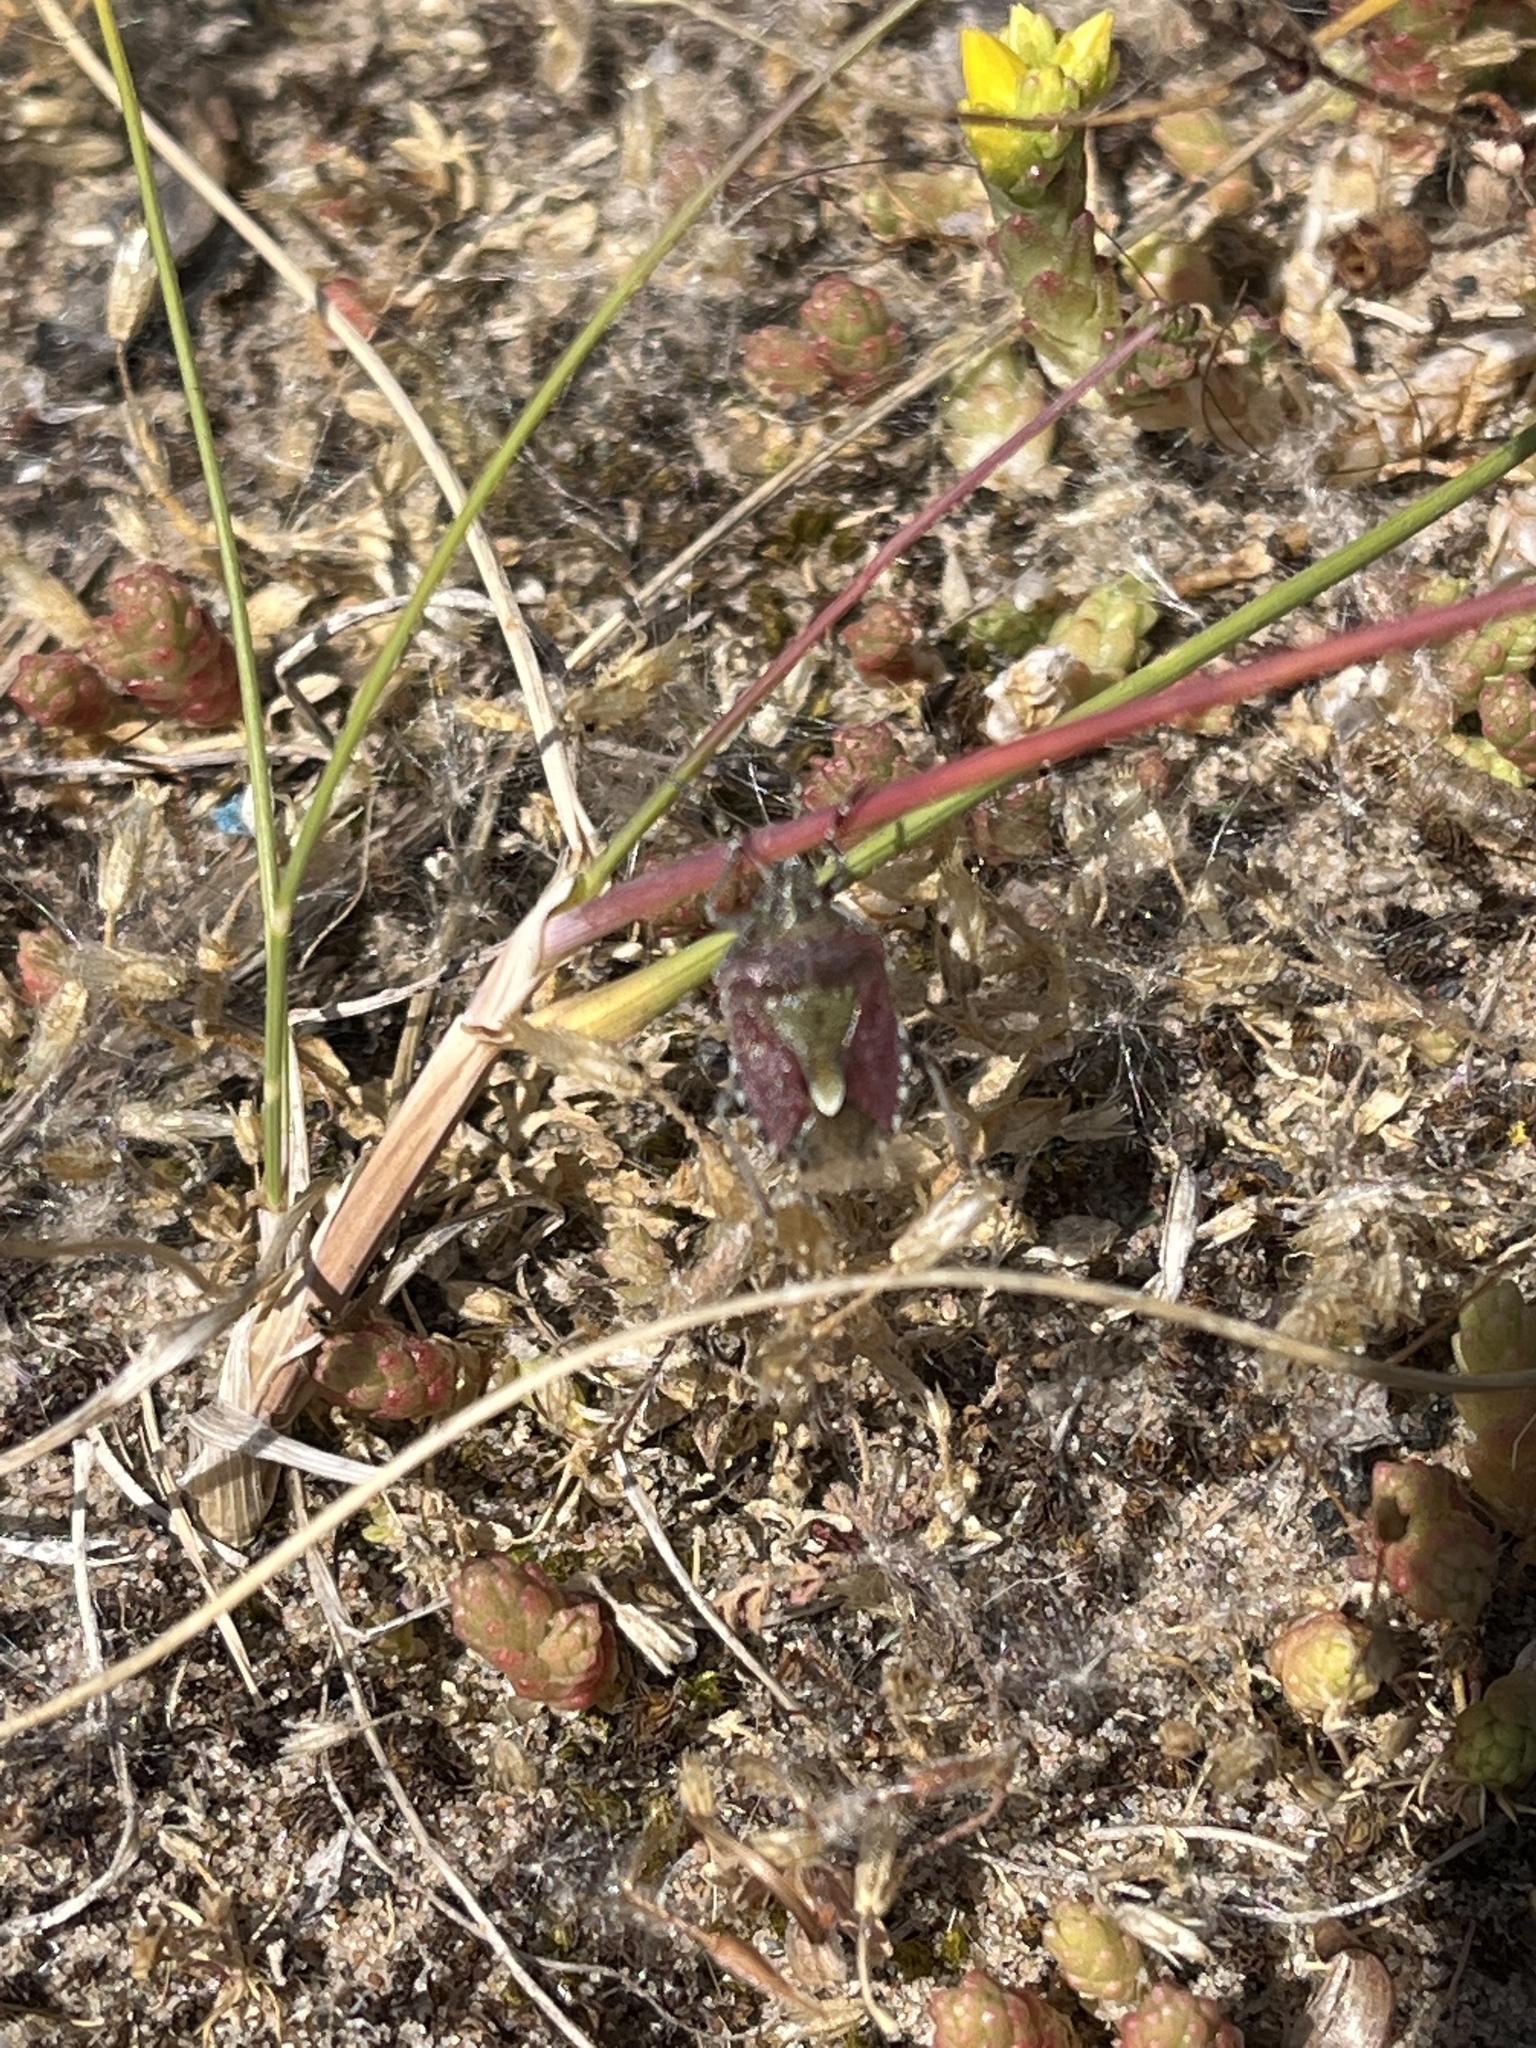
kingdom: Animalia
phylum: Arthropoda
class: Insecta
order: Hemiptera
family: Pentatomidae
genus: Dolycoris
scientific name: Dolycoris baccarum
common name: Sloe bug
